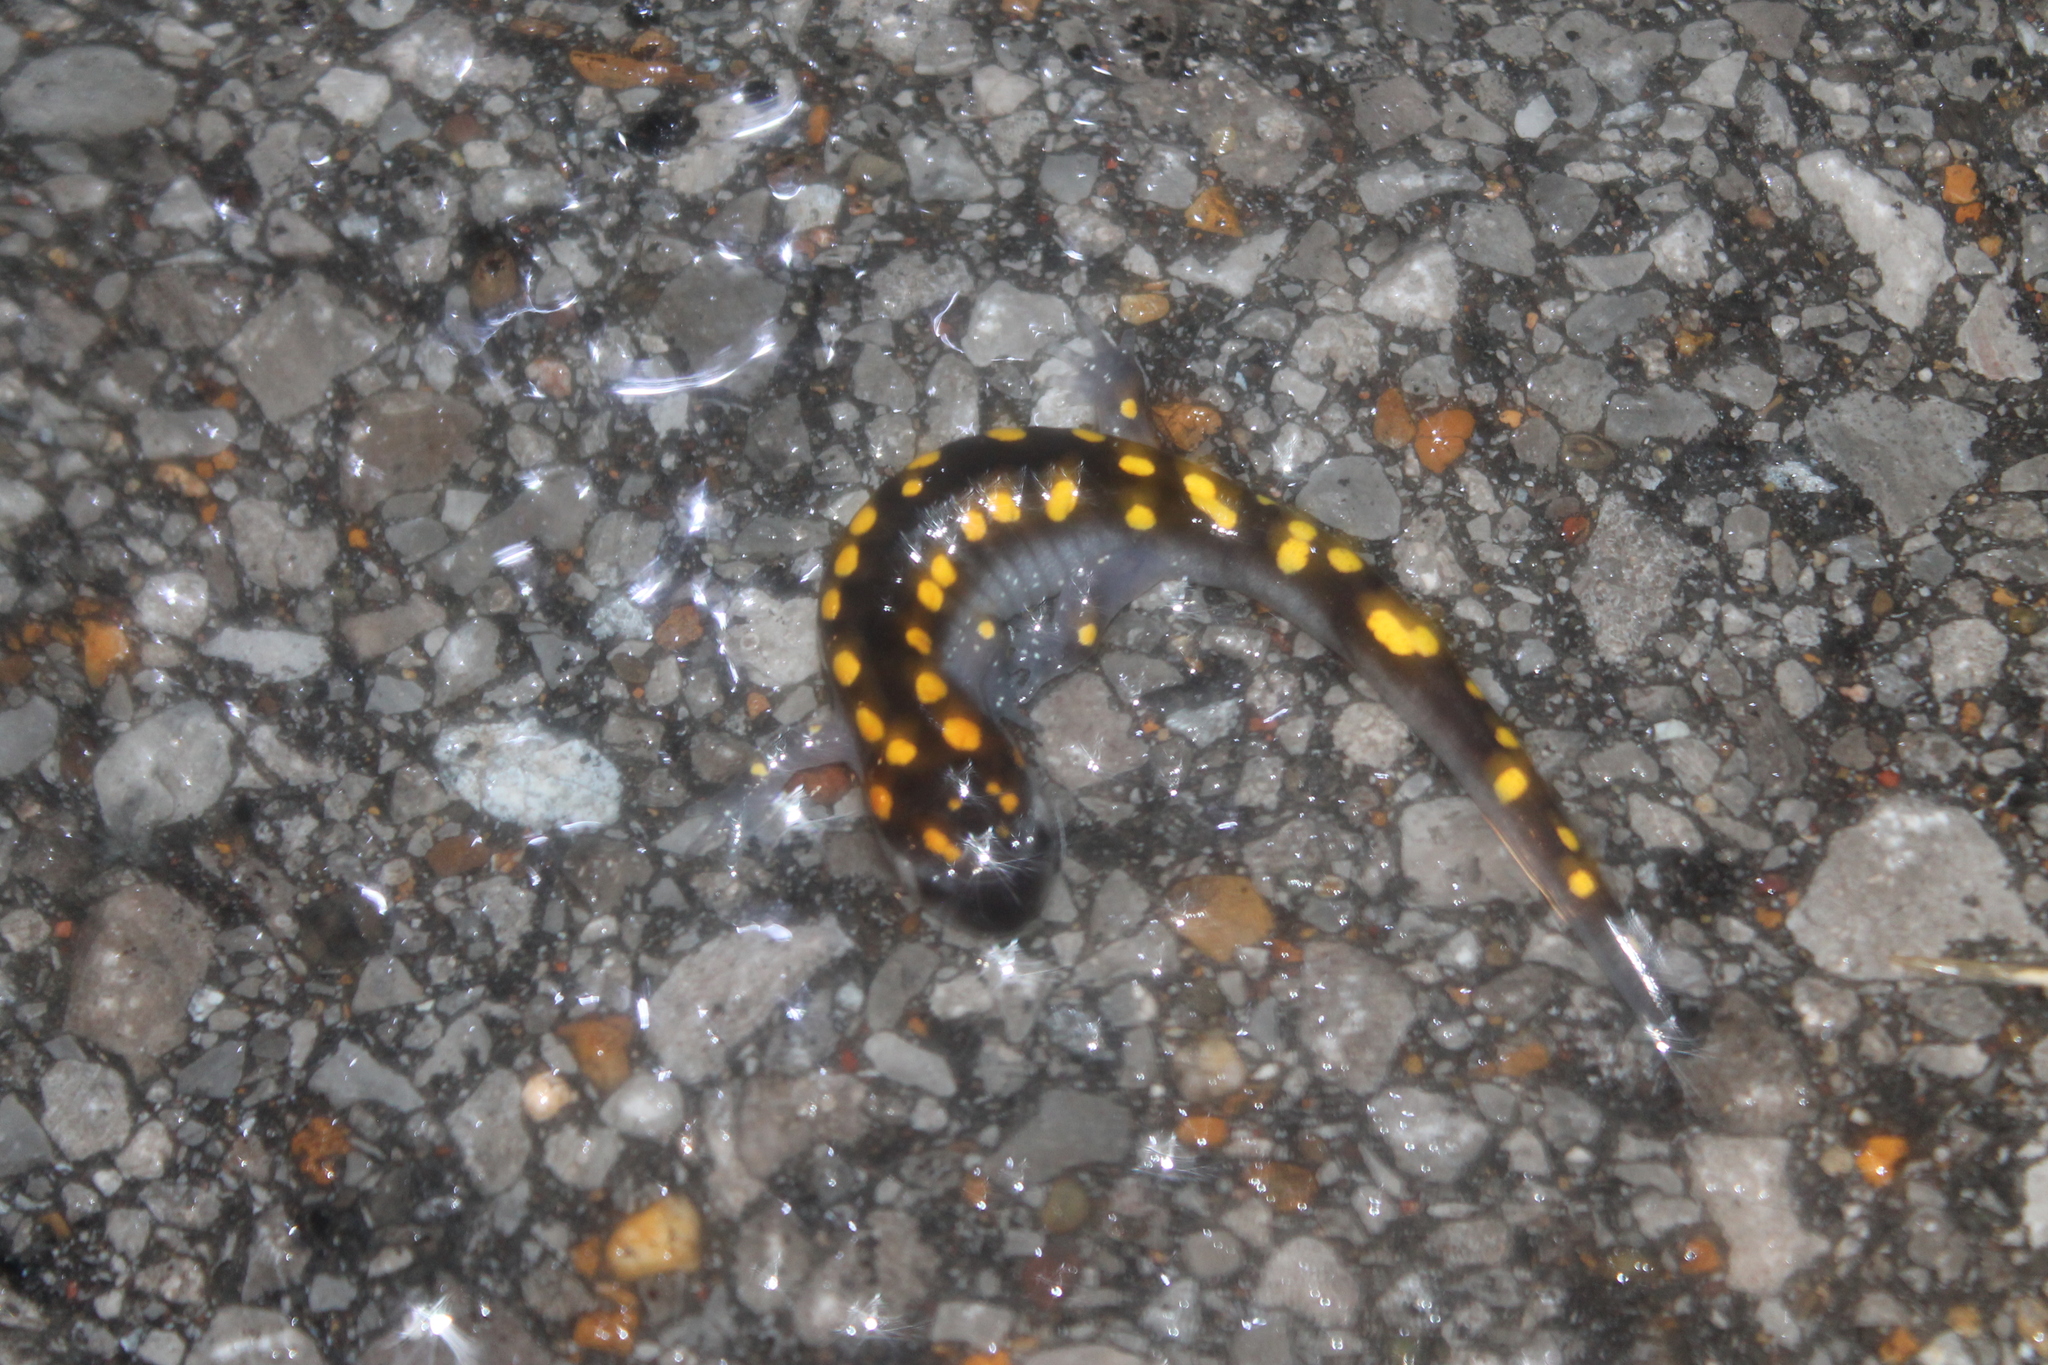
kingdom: Animalia
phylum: Chordata
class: Amphibia
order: Caudata
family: Ambystomatidae
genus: Ambystoma
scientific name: Ambystoma maculatum
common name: Spotted salamander
